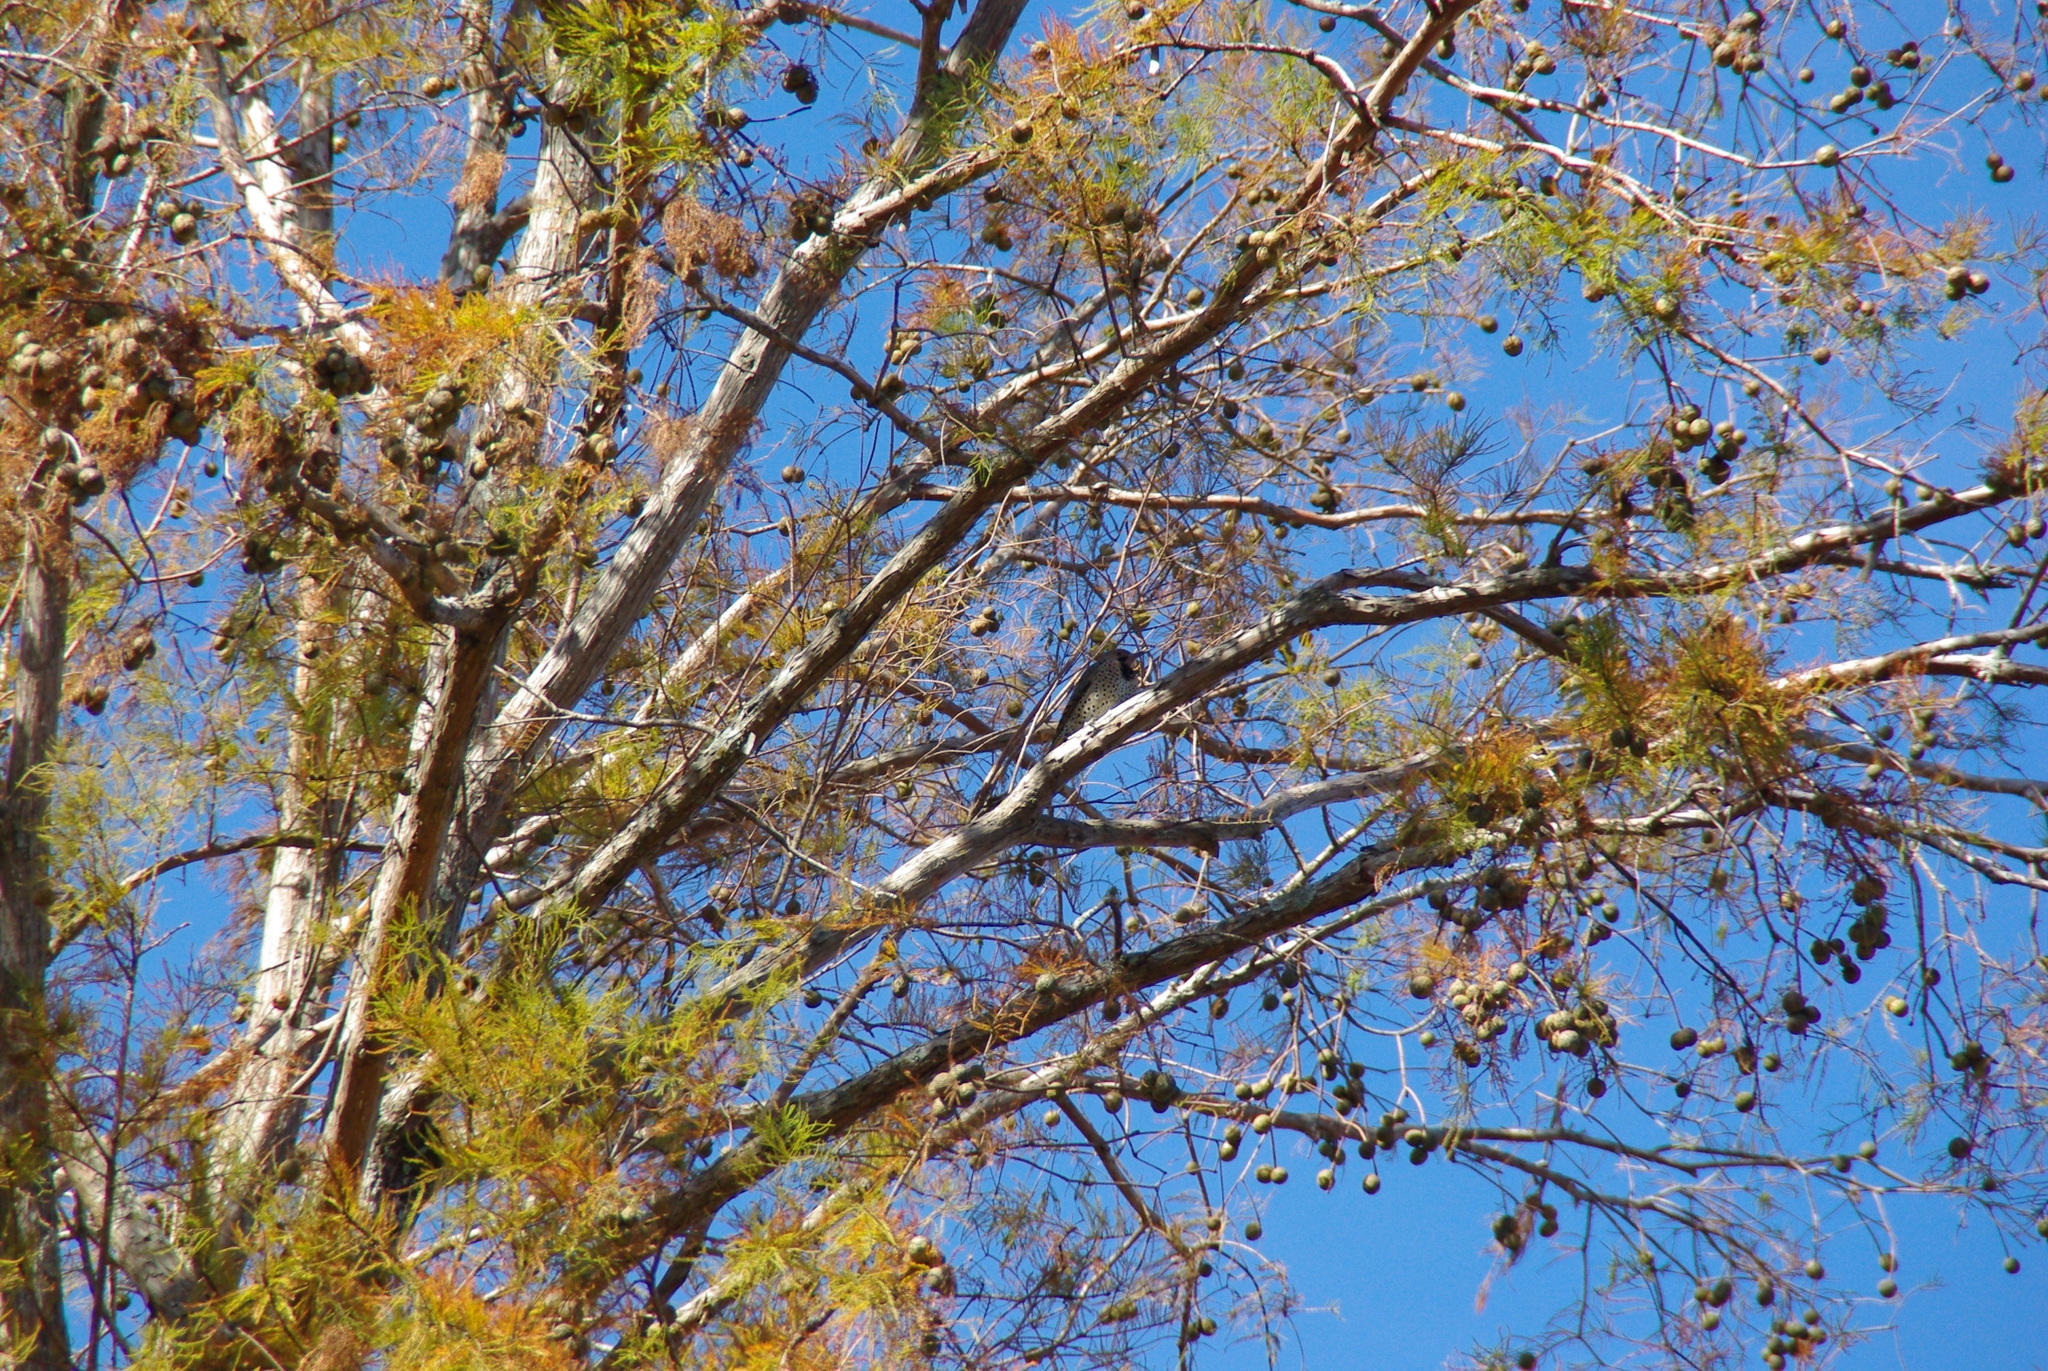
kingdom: Animalia
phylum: Chordata
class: Aves
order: Piciformes
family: Picidae
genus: Colaptes
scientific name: Colaptes auratus
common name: Northern flicker
